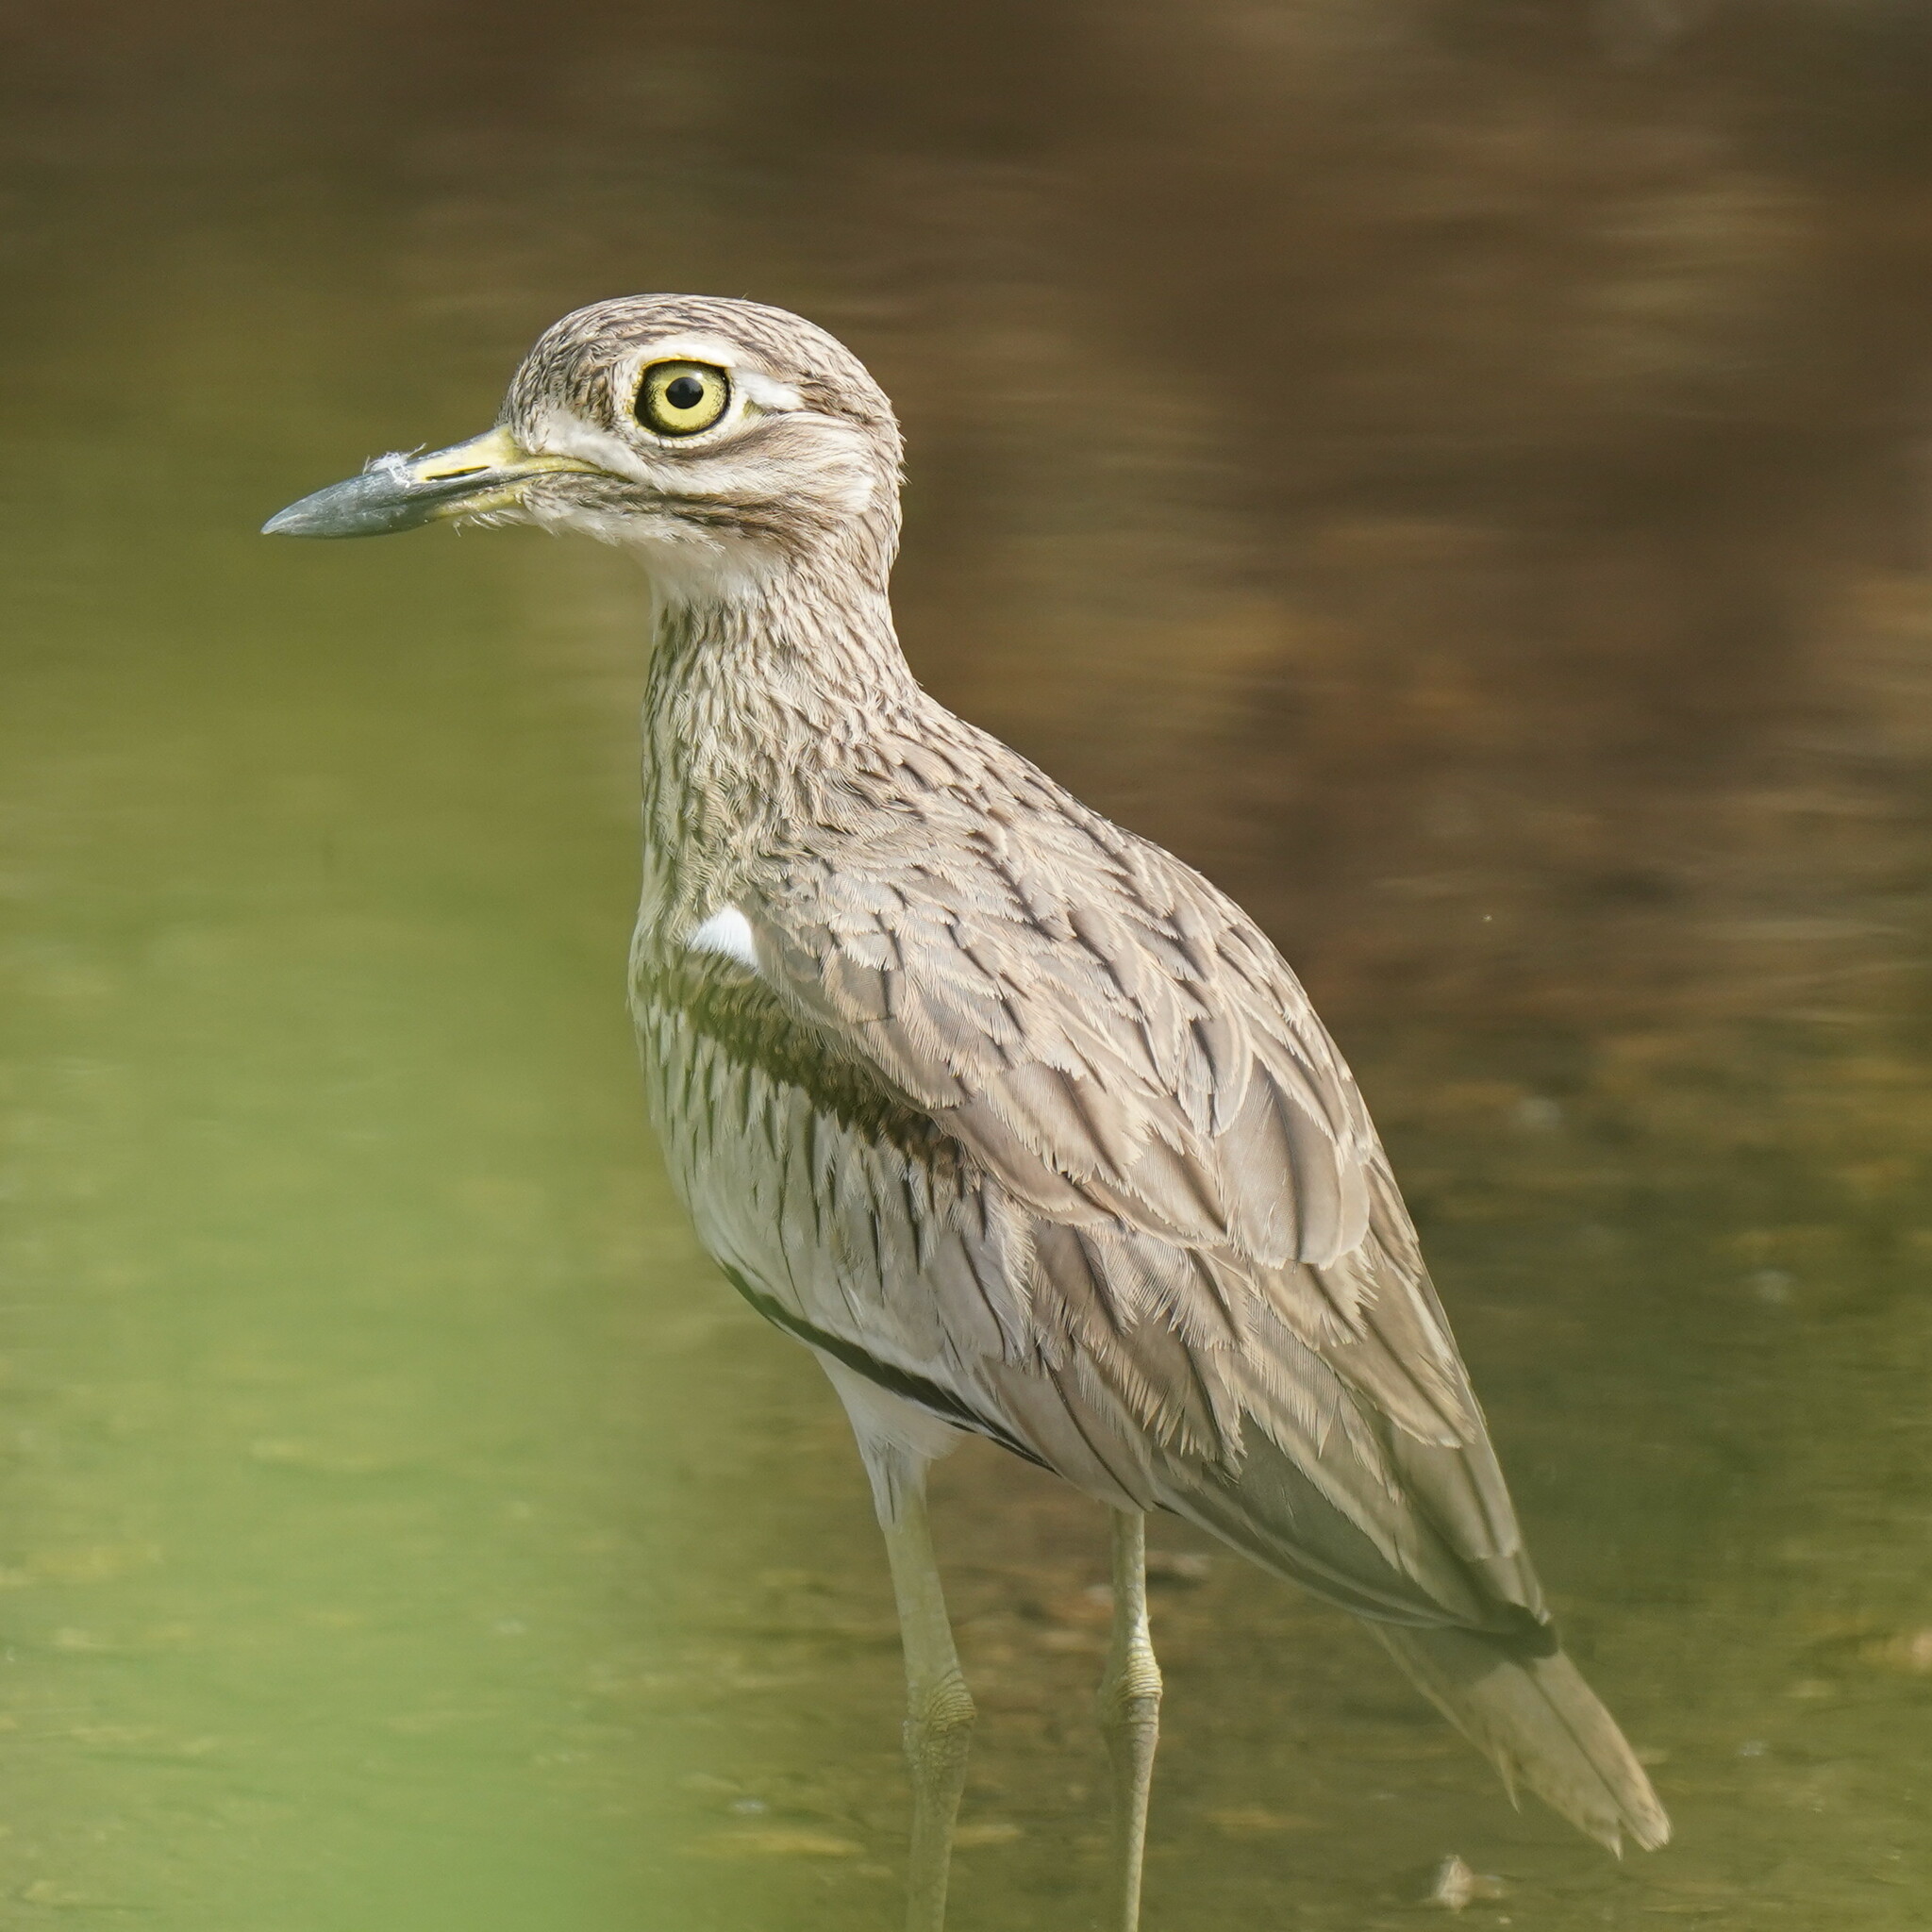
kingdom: Animalia
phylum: Chordata
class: Aves
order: Charadriiformes
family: Burhinidae
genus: Burhinus
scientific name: Burhinus senegalensis
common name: Senegal thick-knee
